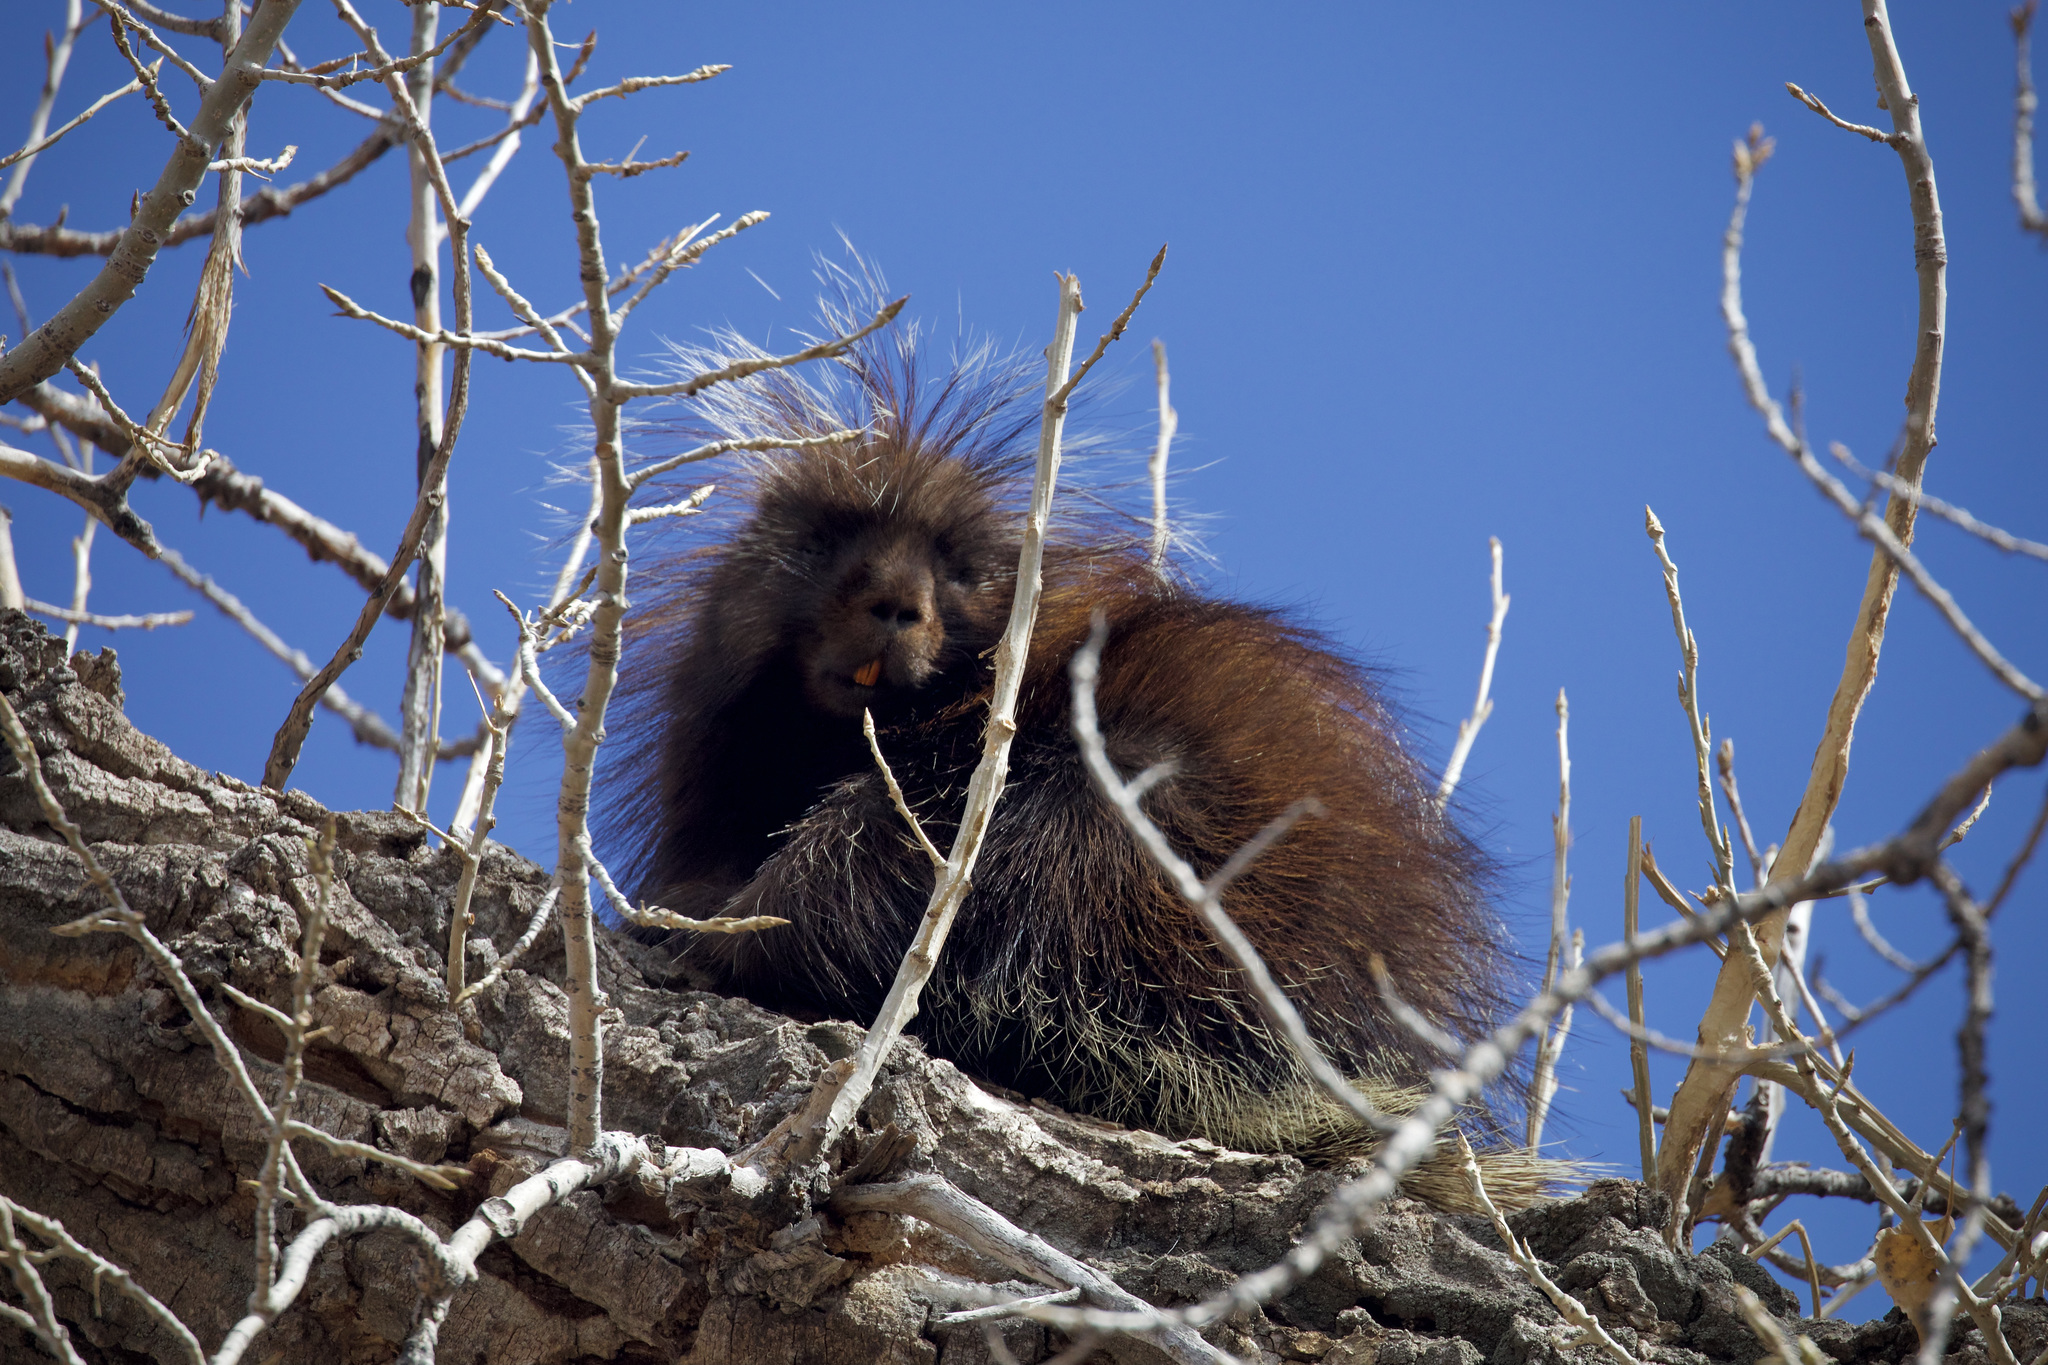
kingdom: Animalia
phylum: Chordata
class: Mammalia
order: Rodentia
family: Erethizontidae
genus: Erethizon
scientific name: Erethizon dorsatus
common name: North american porcupine
